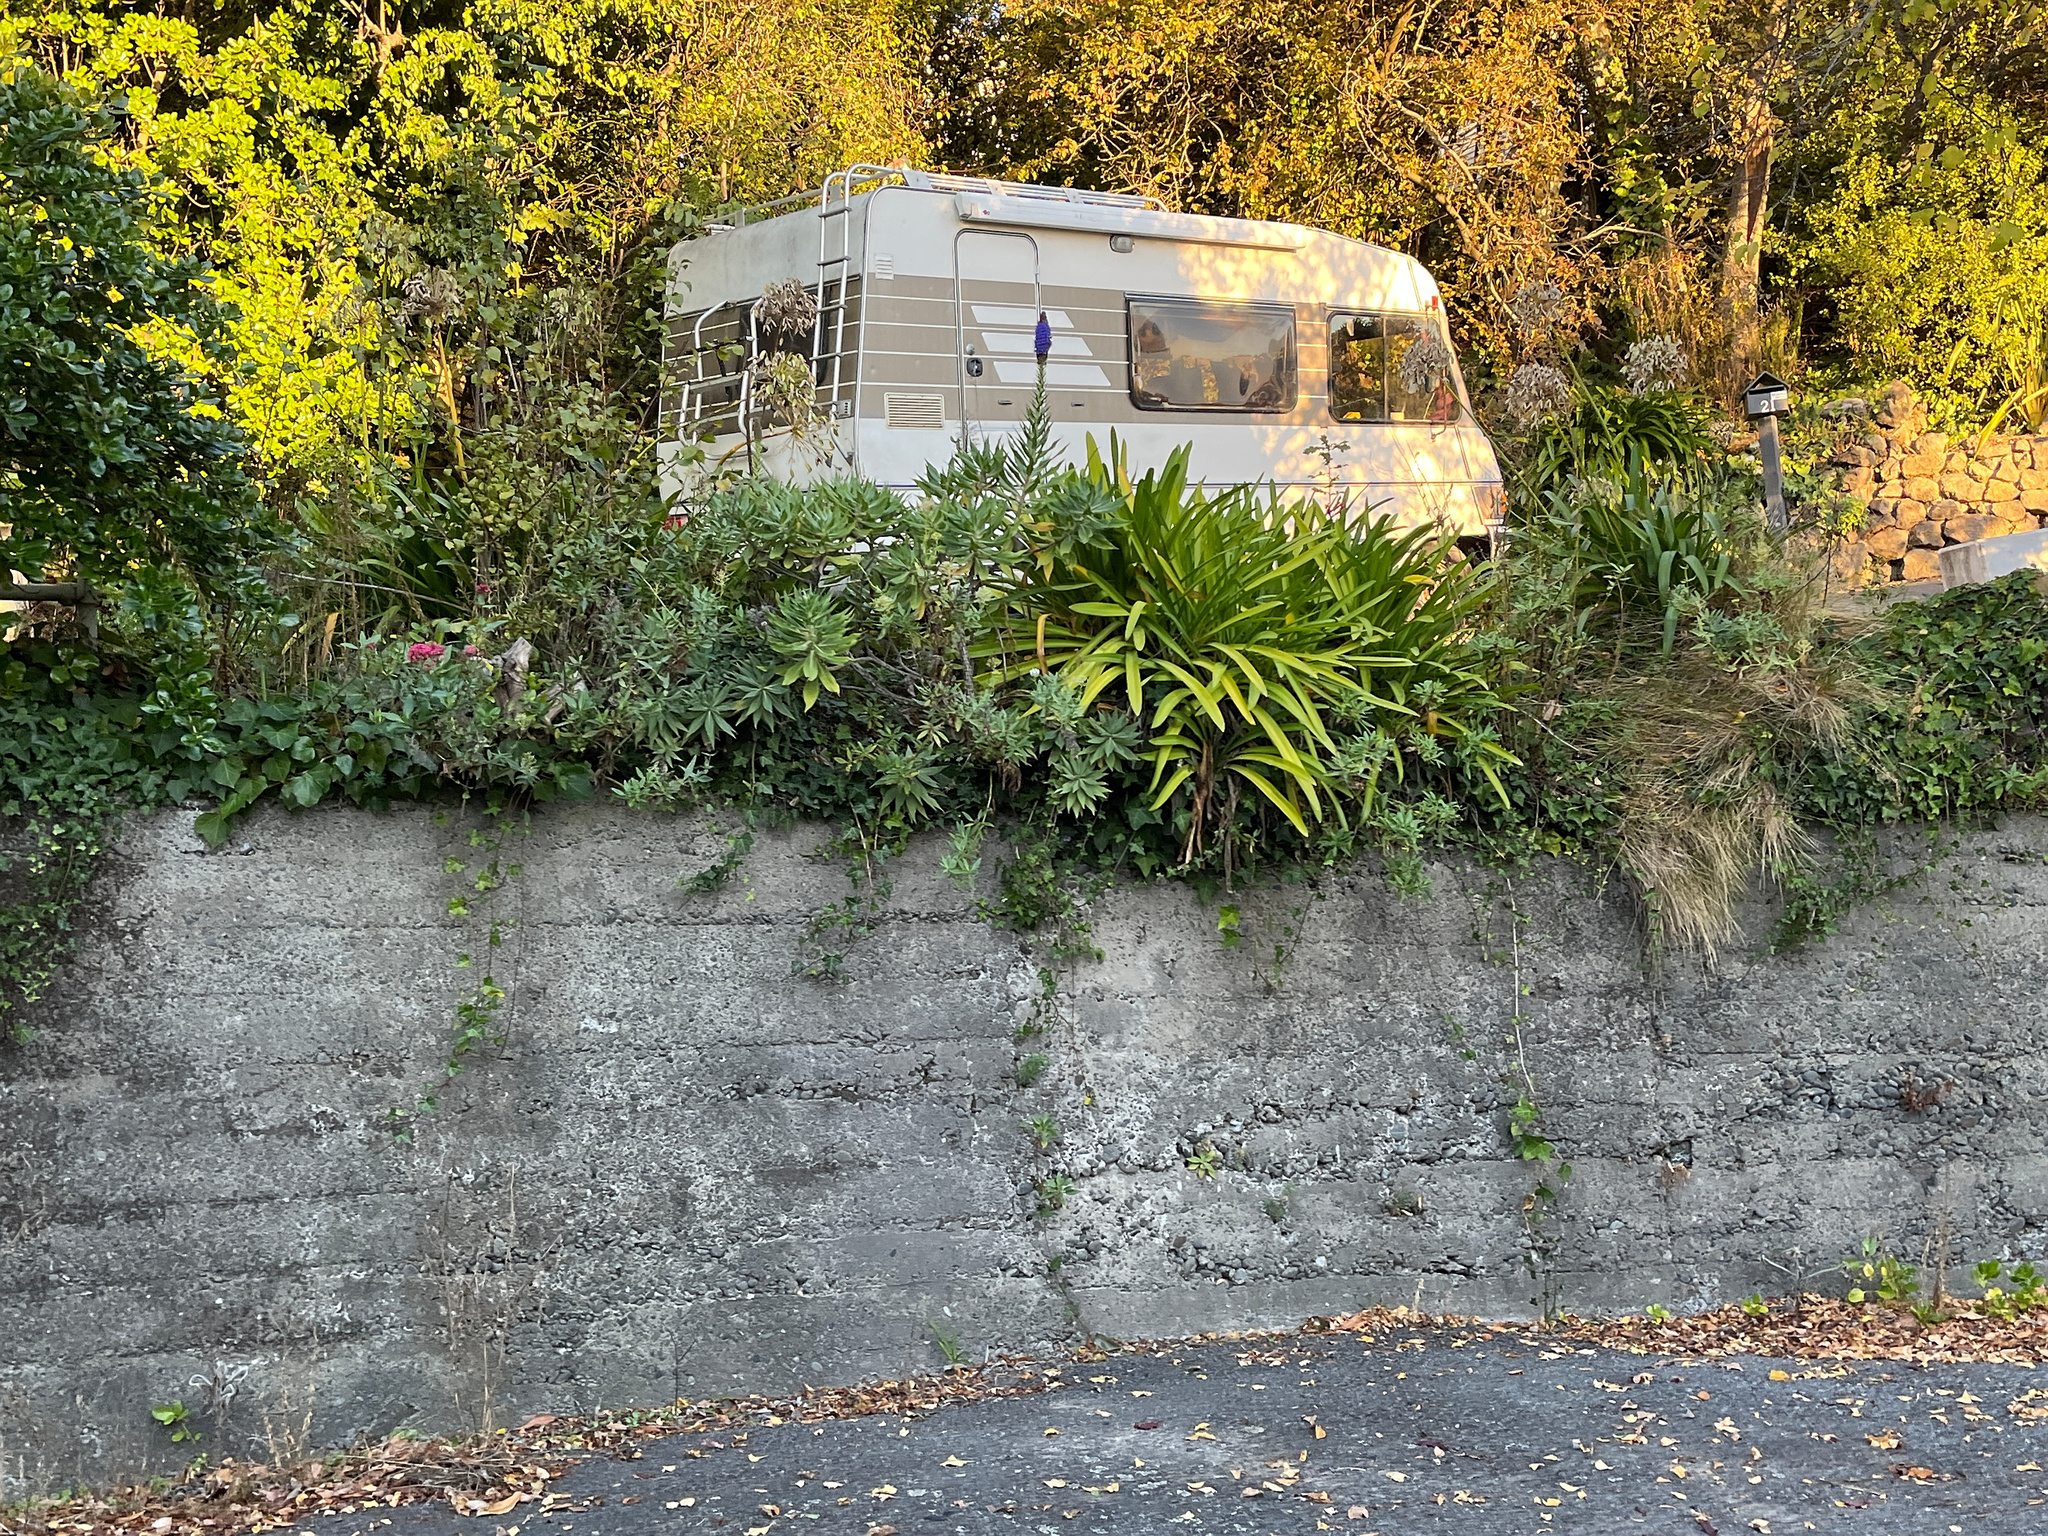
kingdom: Plantae
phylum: Tracheophyta
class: Magnoliopsida
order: Boraginales
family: Boraginaceae
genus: Echium
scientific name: Echium candicans
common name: Pride of madeira
